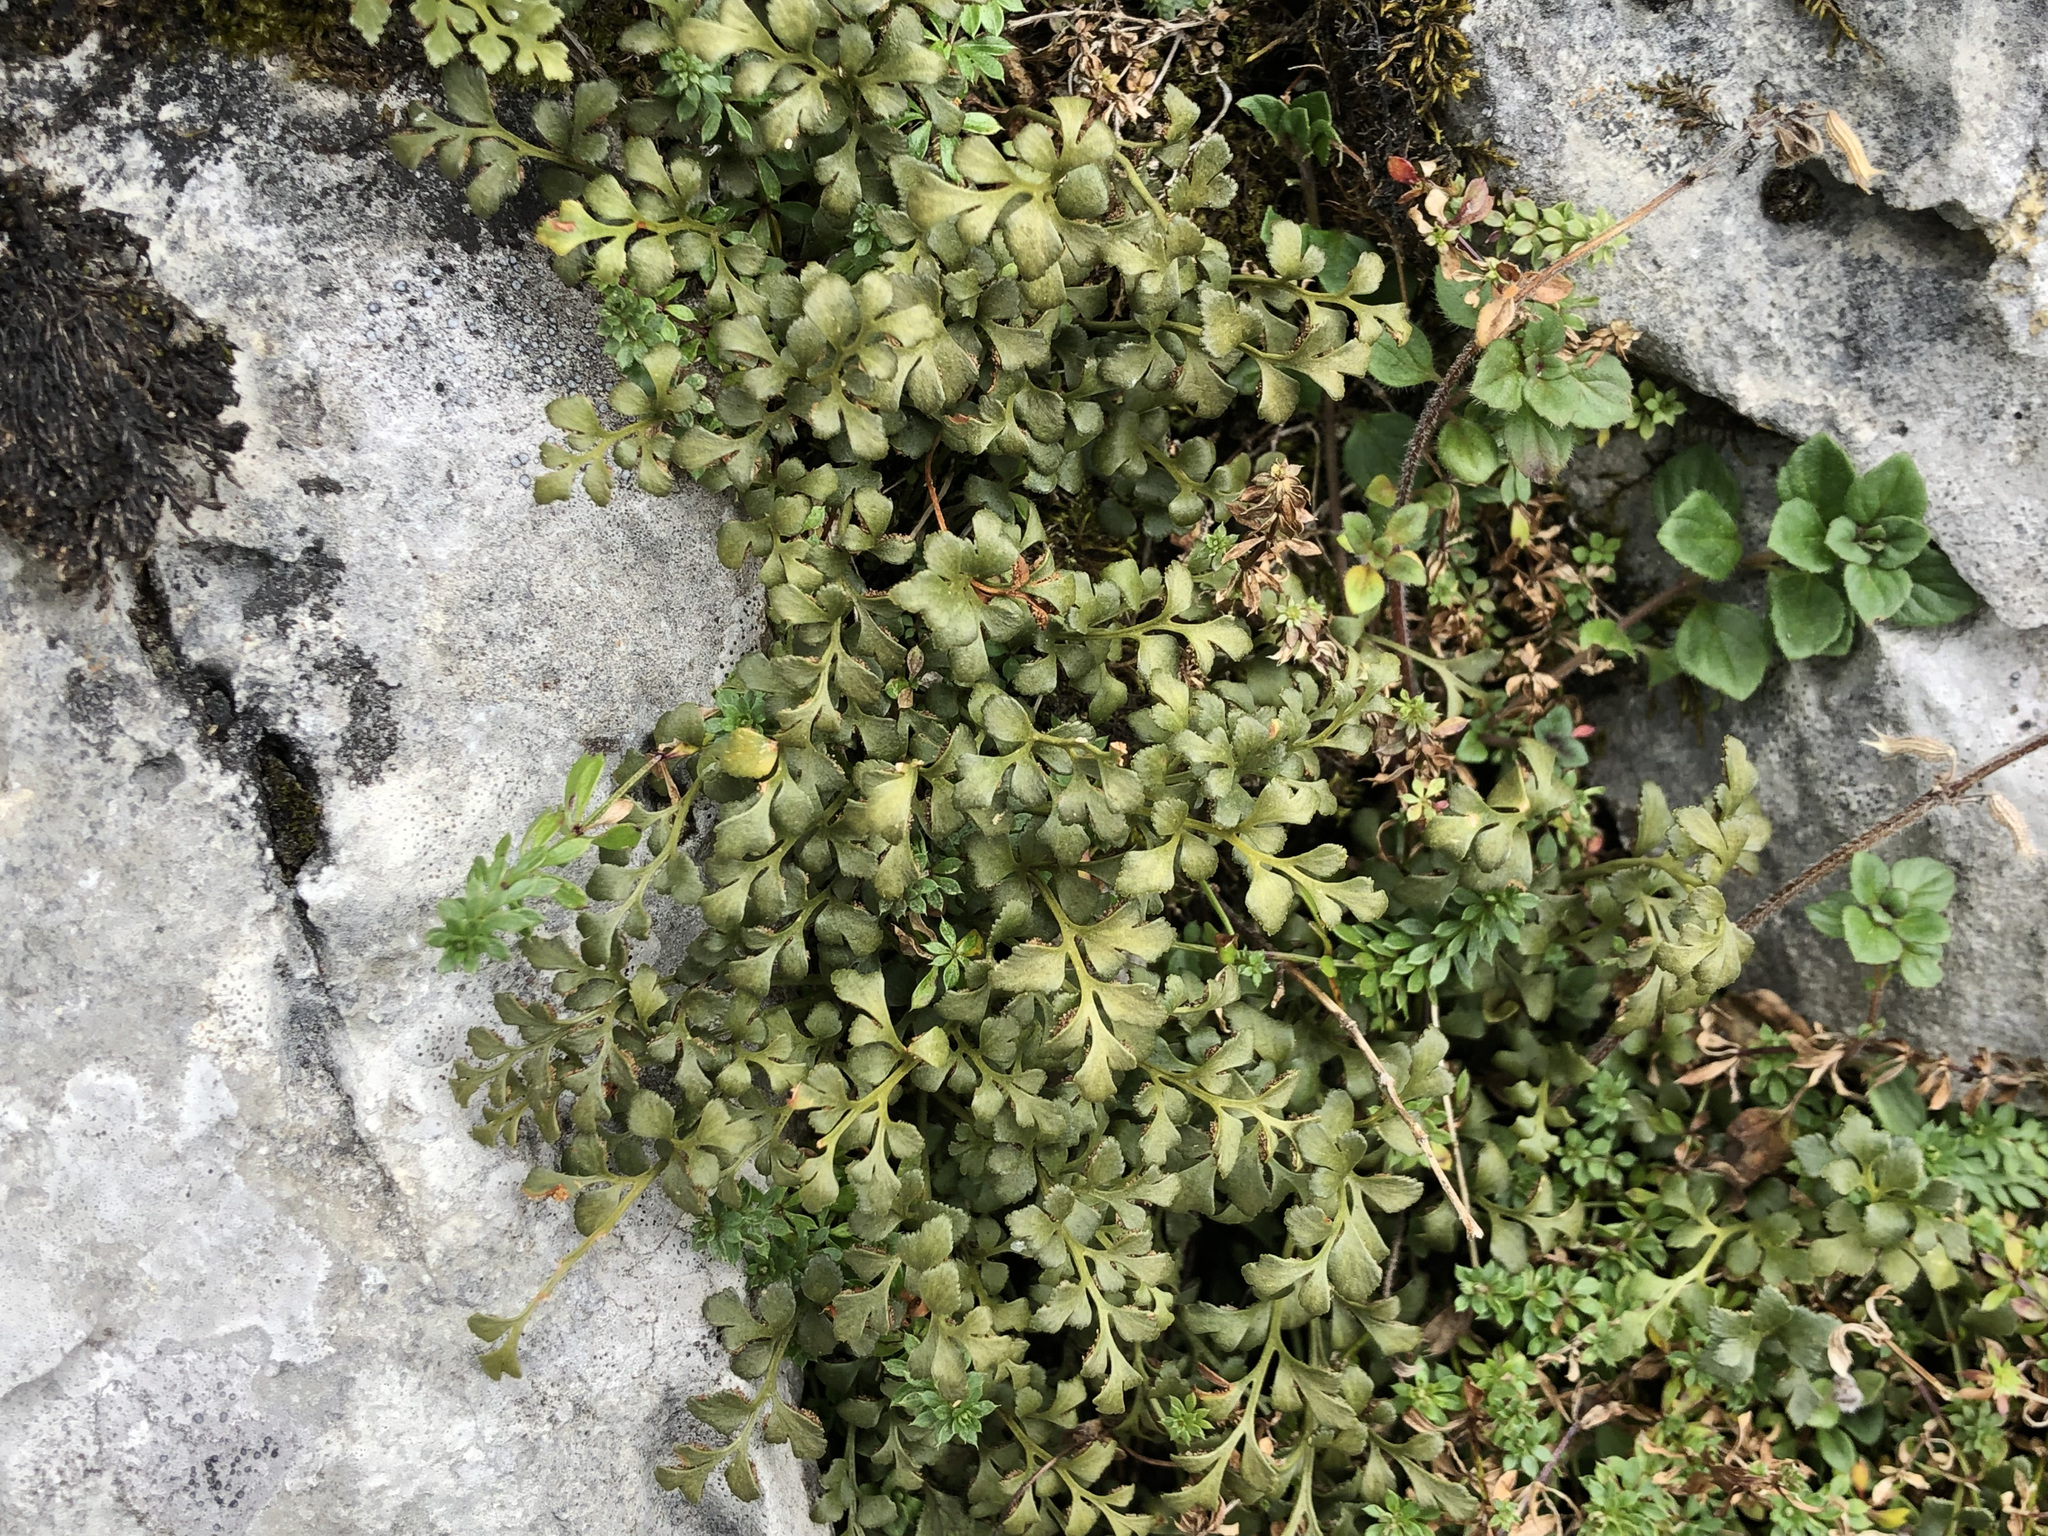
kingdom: Plantae
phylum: Tracheophyta
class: Polypodiopsida
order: Polypodiales
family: Aspleniaceae
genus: Asplenium
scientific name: Asplenium ruta-muraria
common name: Wall-rue
